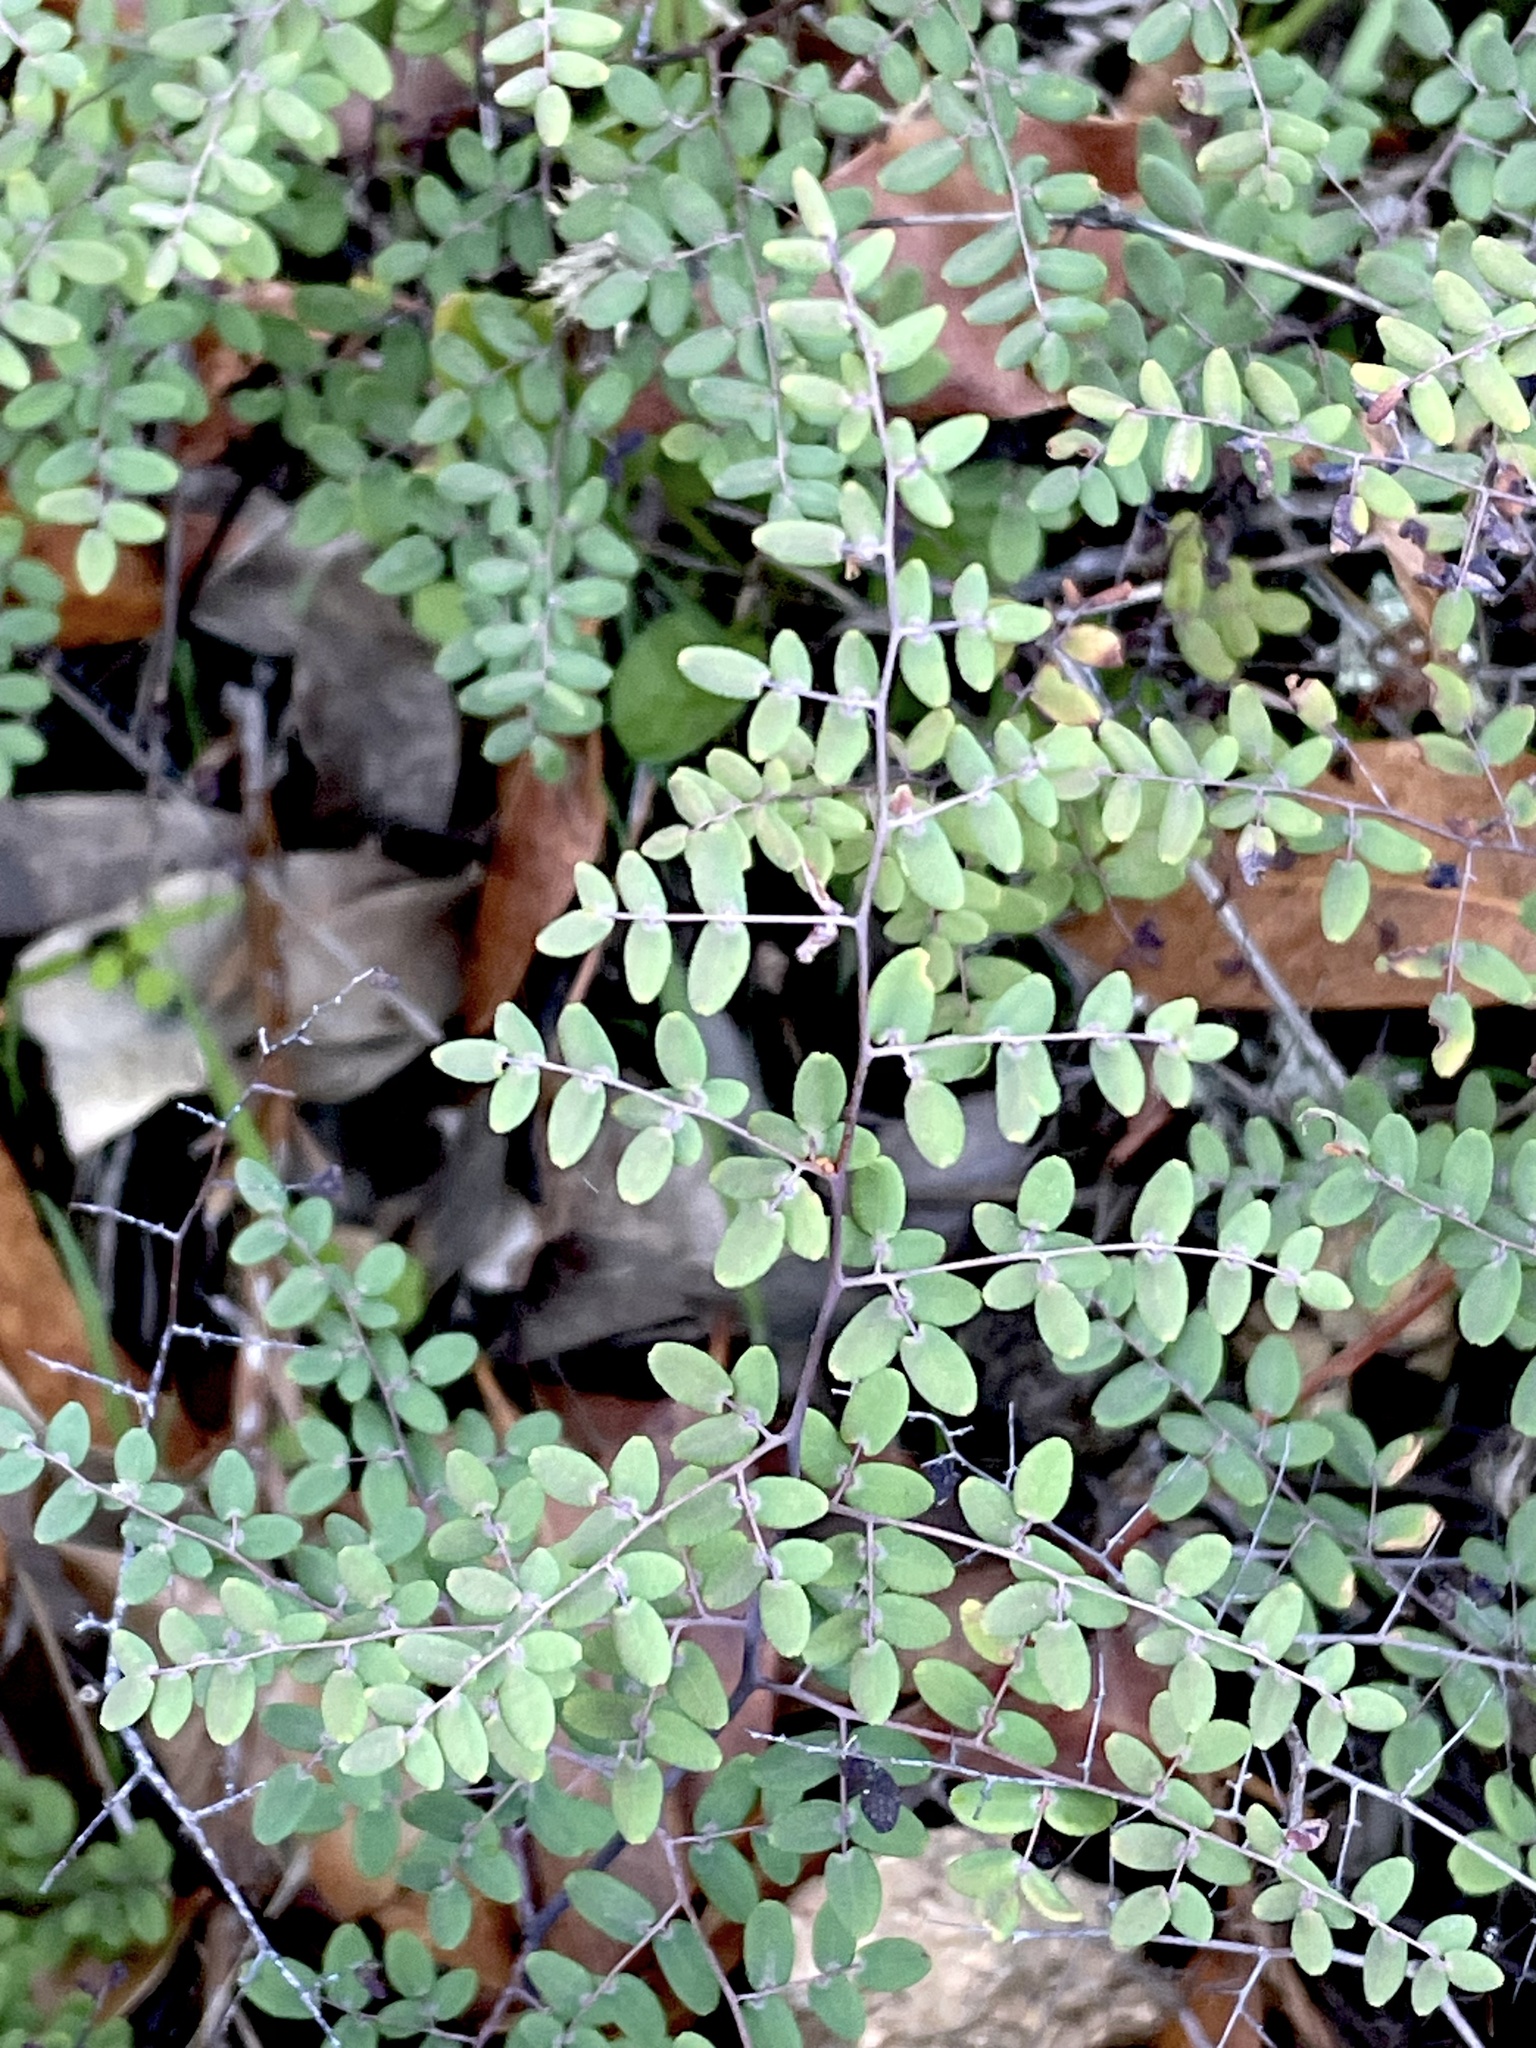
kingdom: Plantae
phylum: Tracheophyta
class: Polypodiopsida
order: Polypodiales
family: Pteridaceae
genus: Pellaea
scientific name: Pellaea andromedifolia
